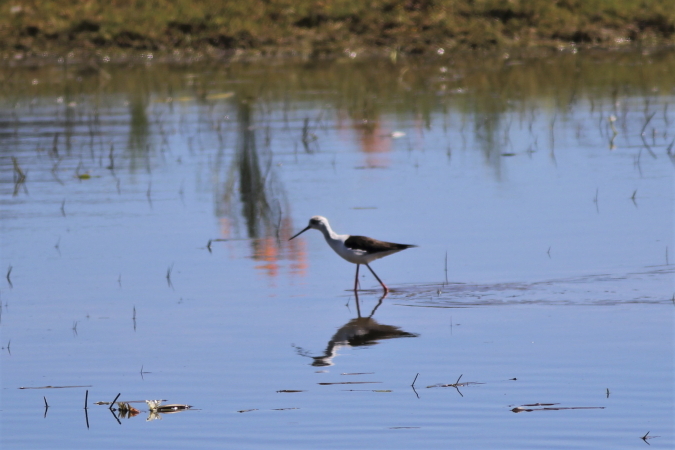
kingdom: Animalia
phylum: Chordata
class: Aves
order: Charadriiformes
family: Recurvirostridae
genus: Himantopus
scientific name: Himantopus himantopus
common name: Black-winged stilt
